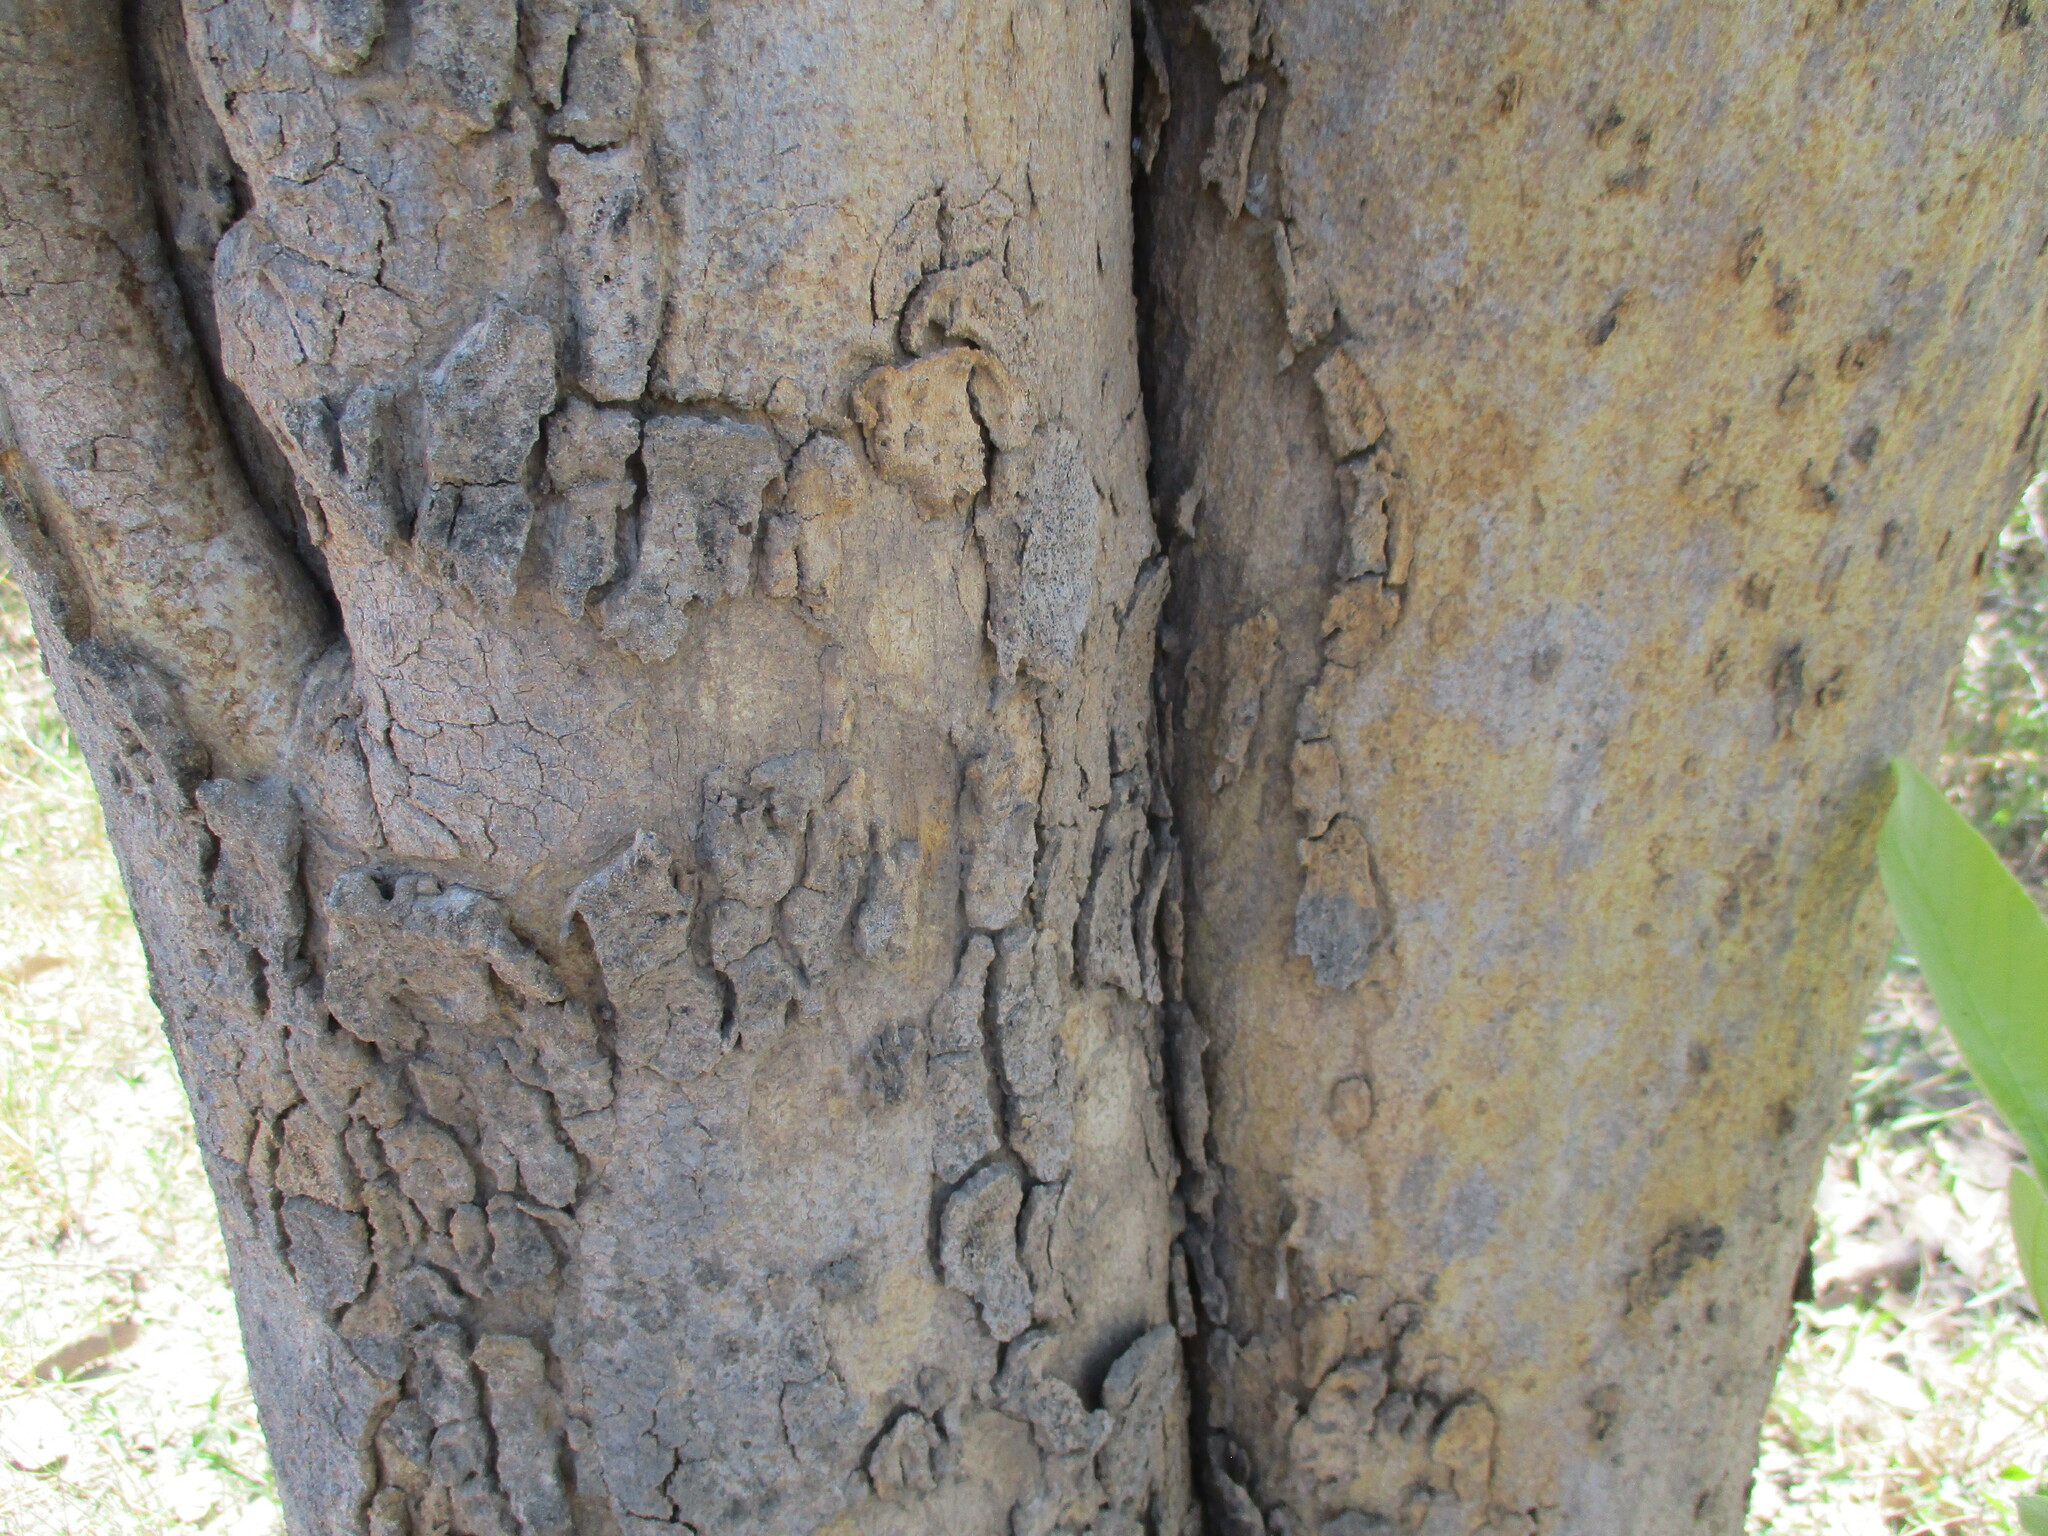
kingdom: Plantae
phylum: Tracheophyta
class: Magnoliopsida
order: Fabales
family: Fabaceae
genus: Philenoptera
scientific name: Philenoptera violacea
